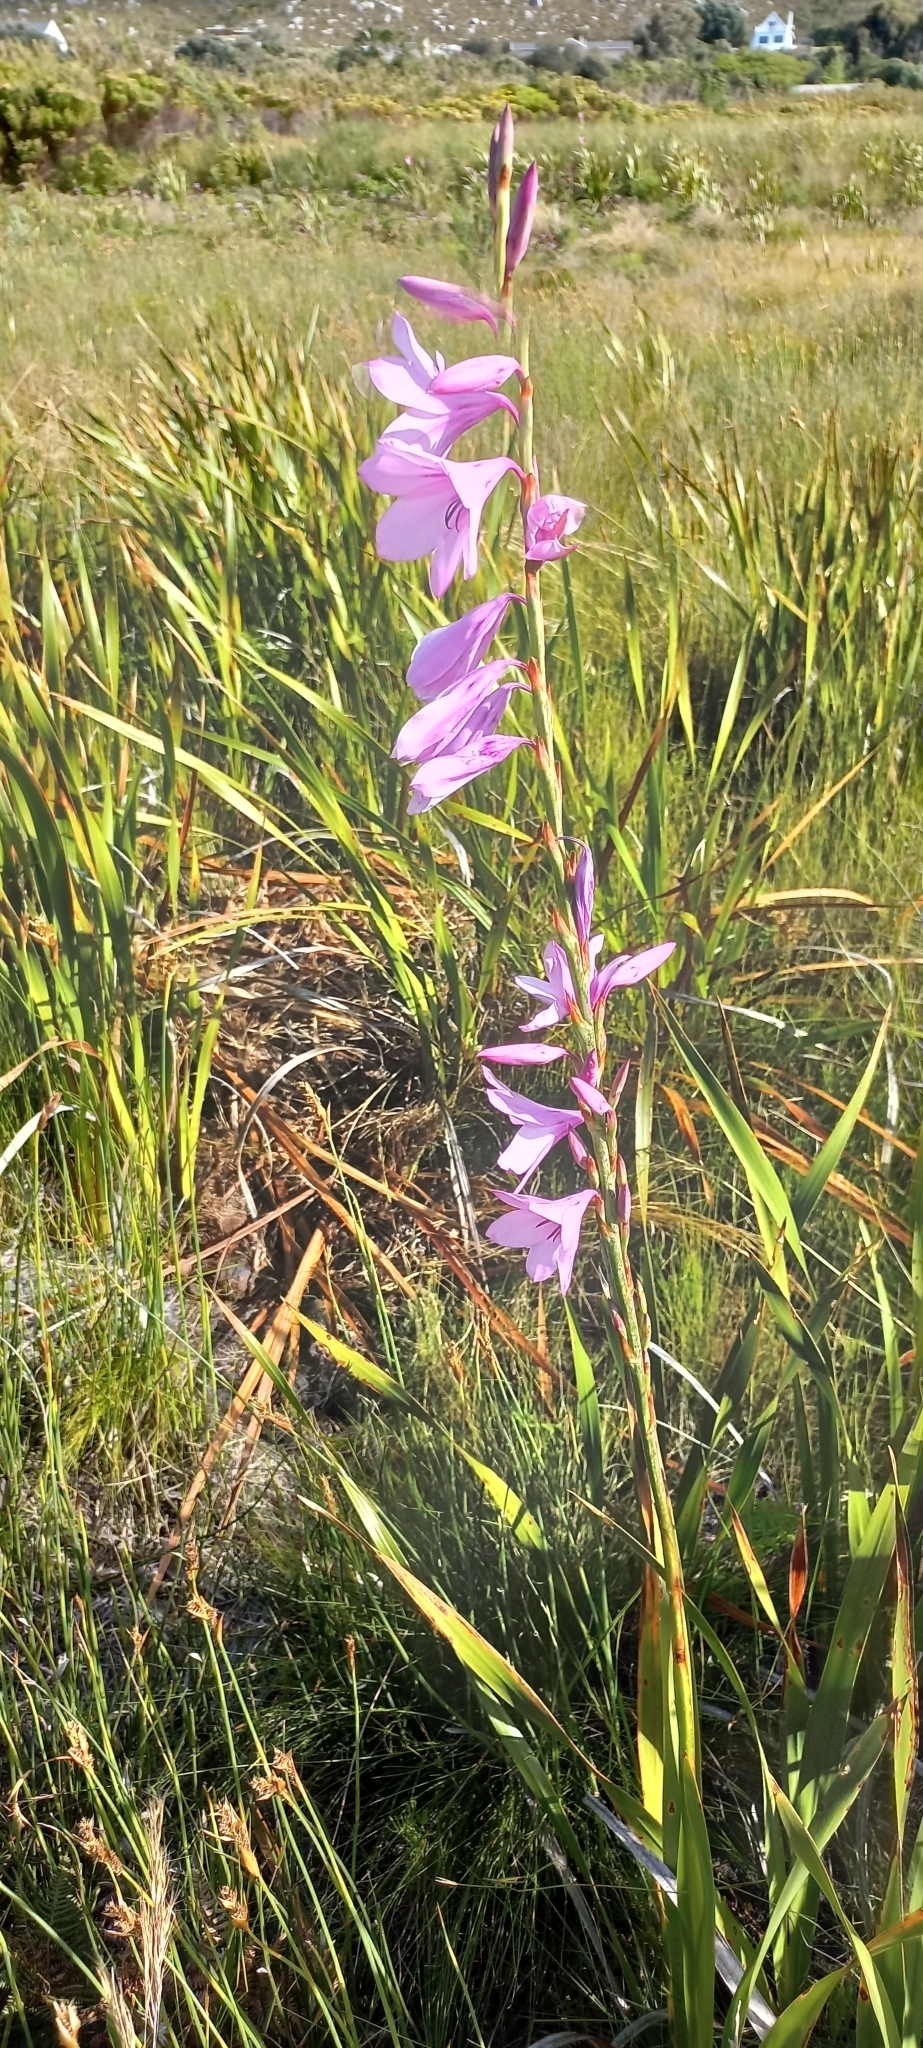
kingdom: Plantae
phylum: Tracheophyta
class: Liliopsida
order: Asparagales
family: Iridaceae
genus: Watsonia
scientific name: Watsonia borbonica
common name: Bugle-lily
